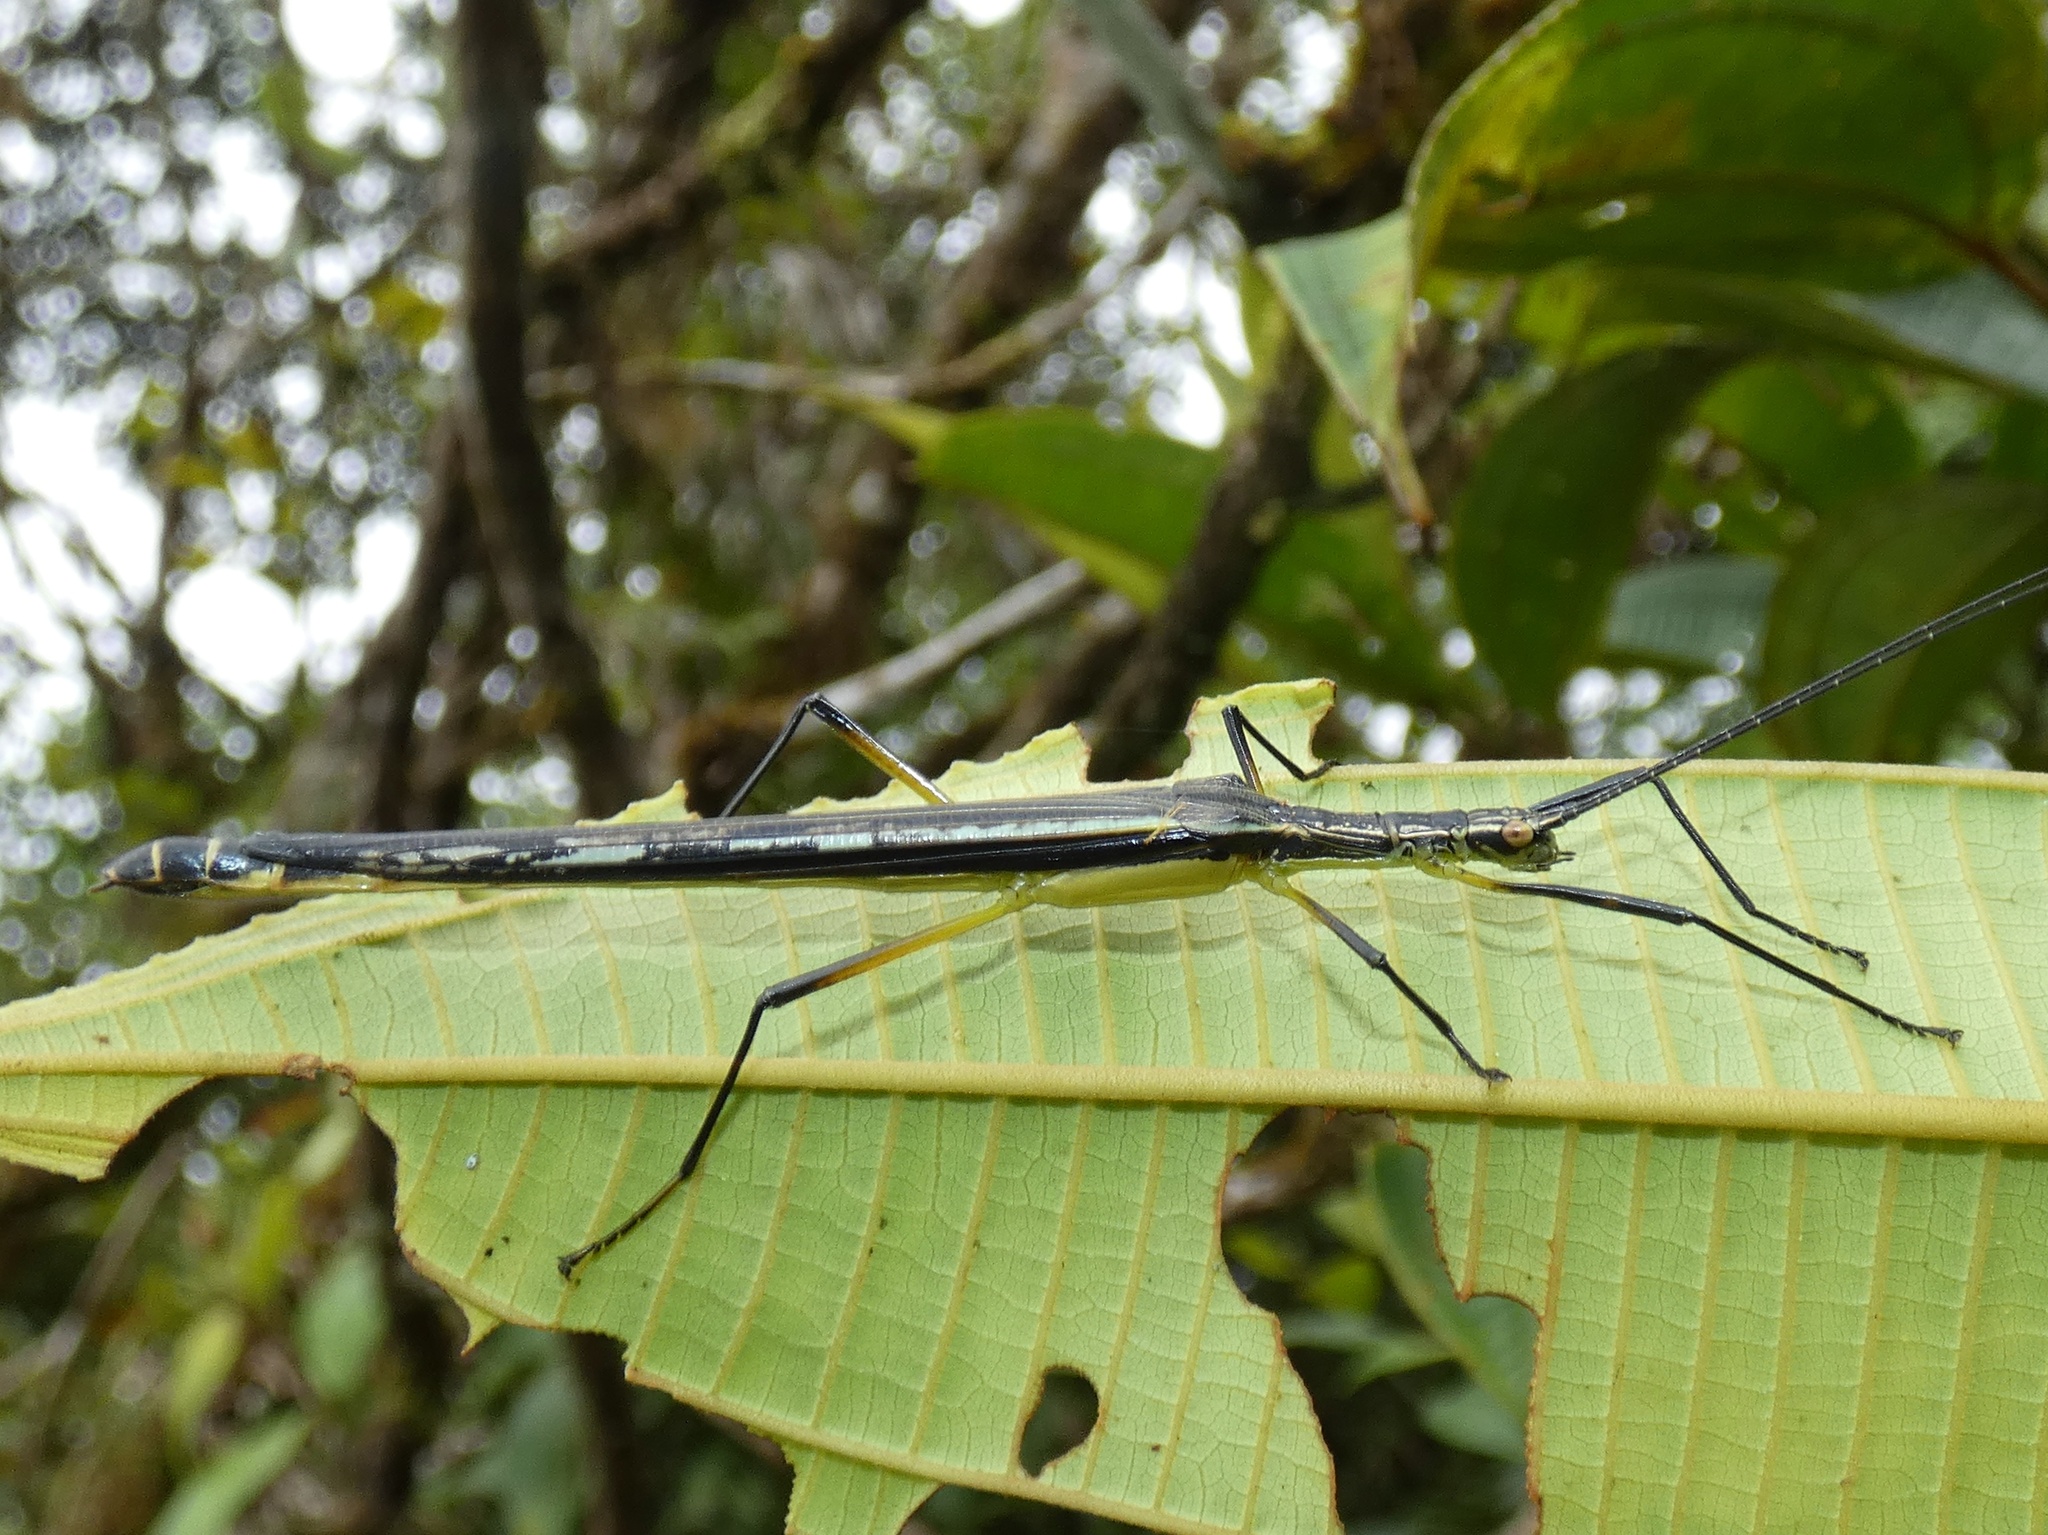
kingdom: Animalia
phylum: Arthropoda
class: Insecta
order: Phasmida
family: Pseudophasmatidae
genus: Cesaphasma
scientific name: Cesaphasma panamensis
